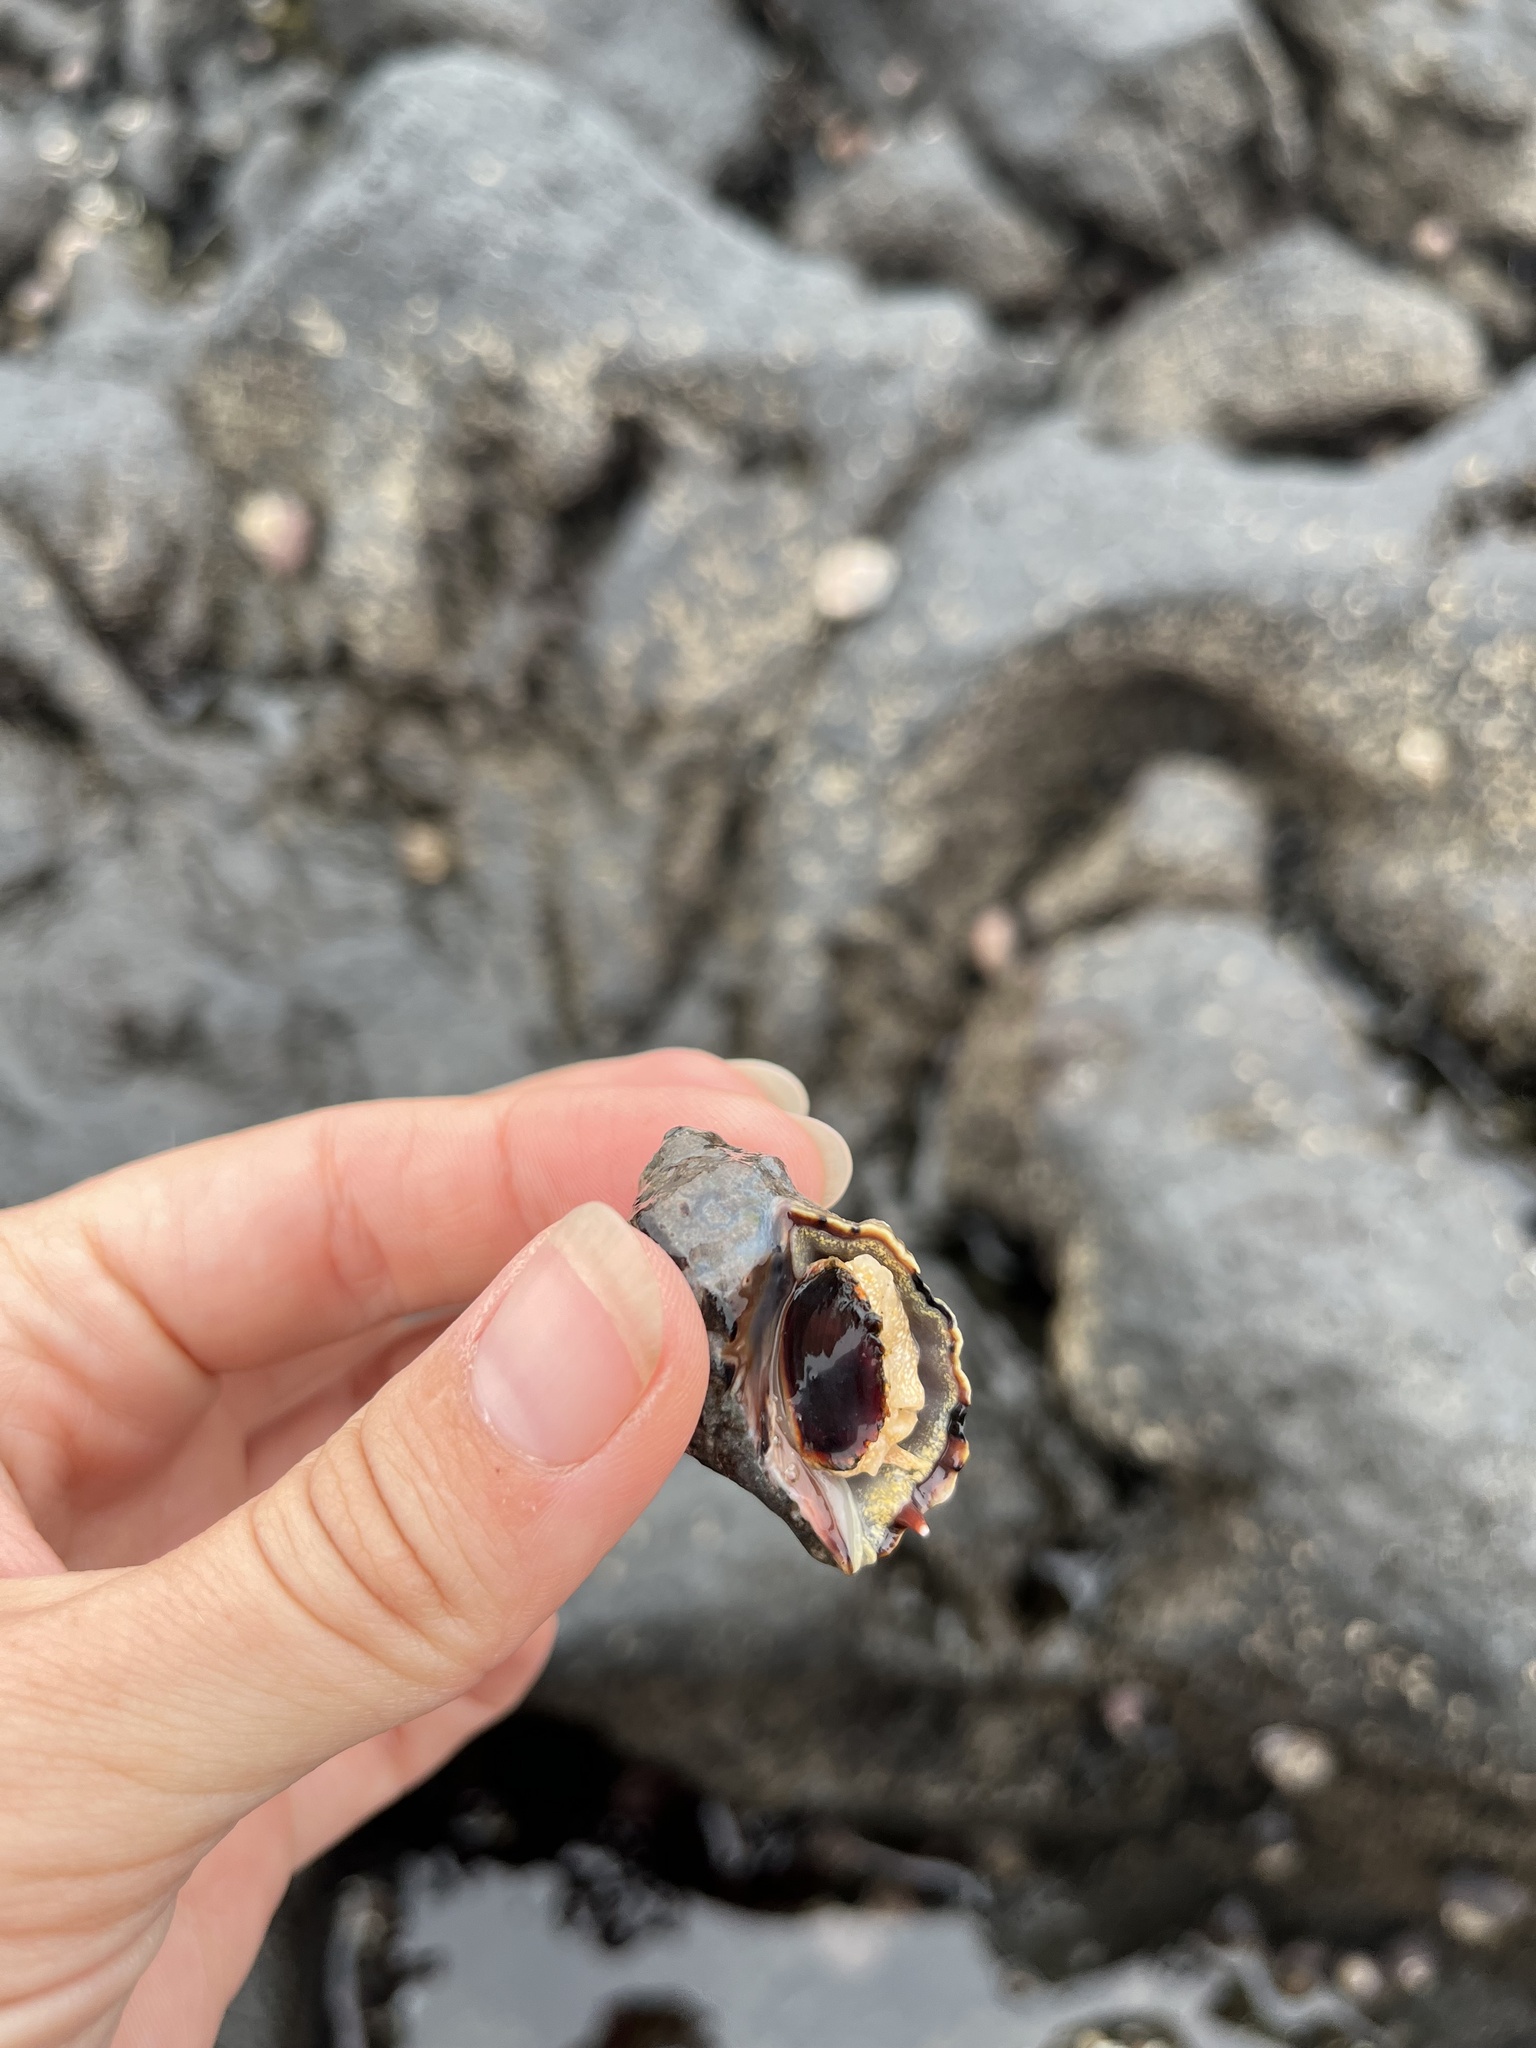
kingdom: Animalia
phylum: Mollusca
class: Gastropoda
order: Neogastropoda
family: Muricidae
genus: Mexacanthina
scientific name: Mexacanthina lugubris
